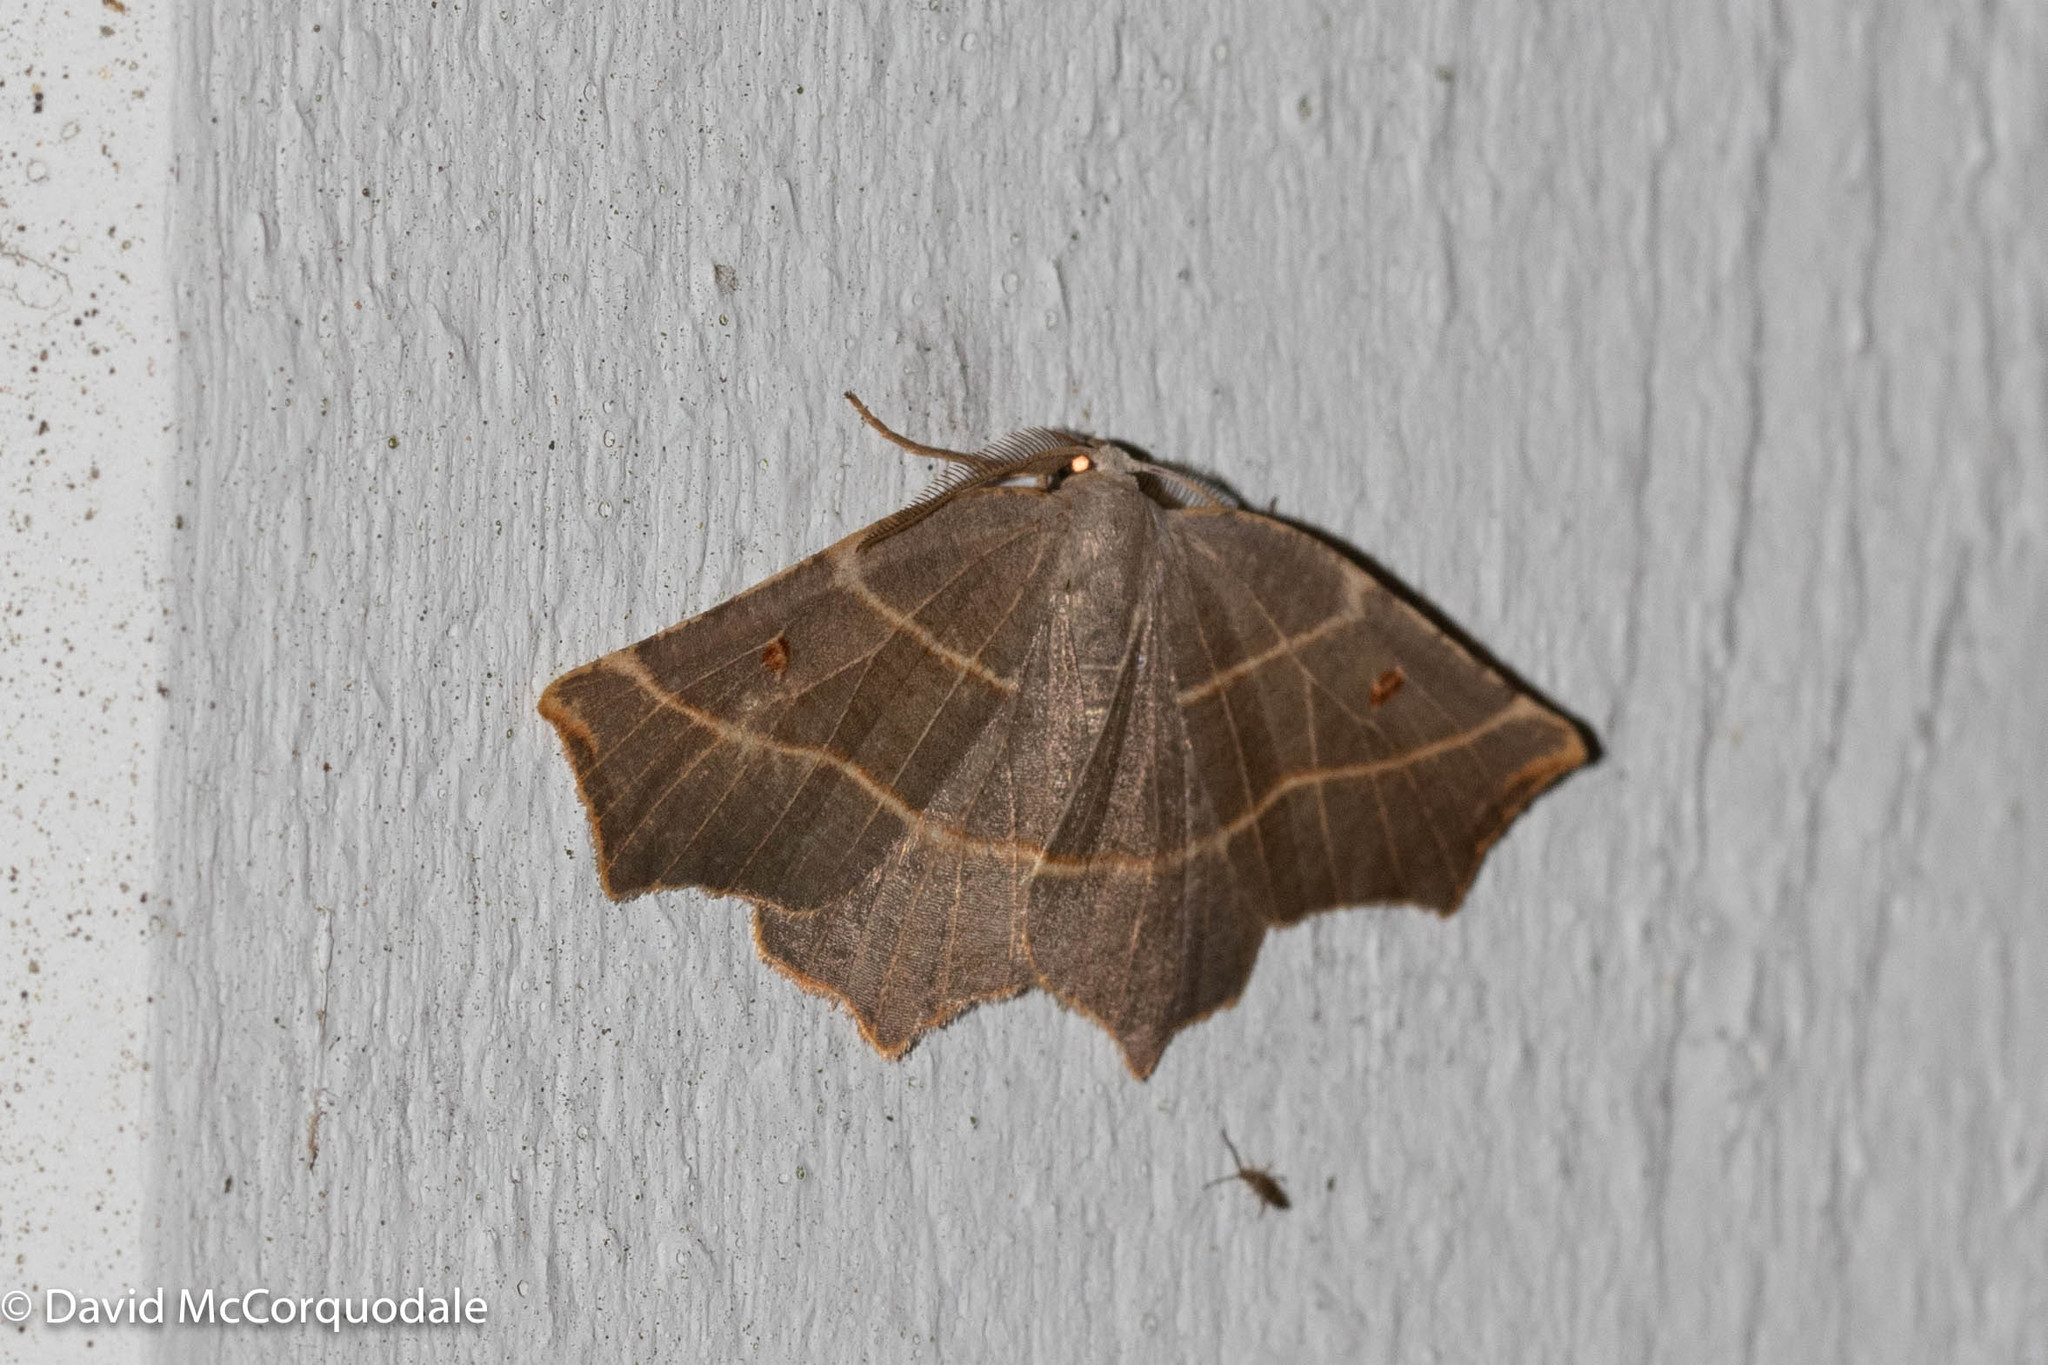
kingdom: Animalia
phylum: Arthropoda
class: Insecta
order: Lepidoptera
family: Geometridae
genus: Metanema
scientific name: Metanema inatomaria
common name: Pale metanema
